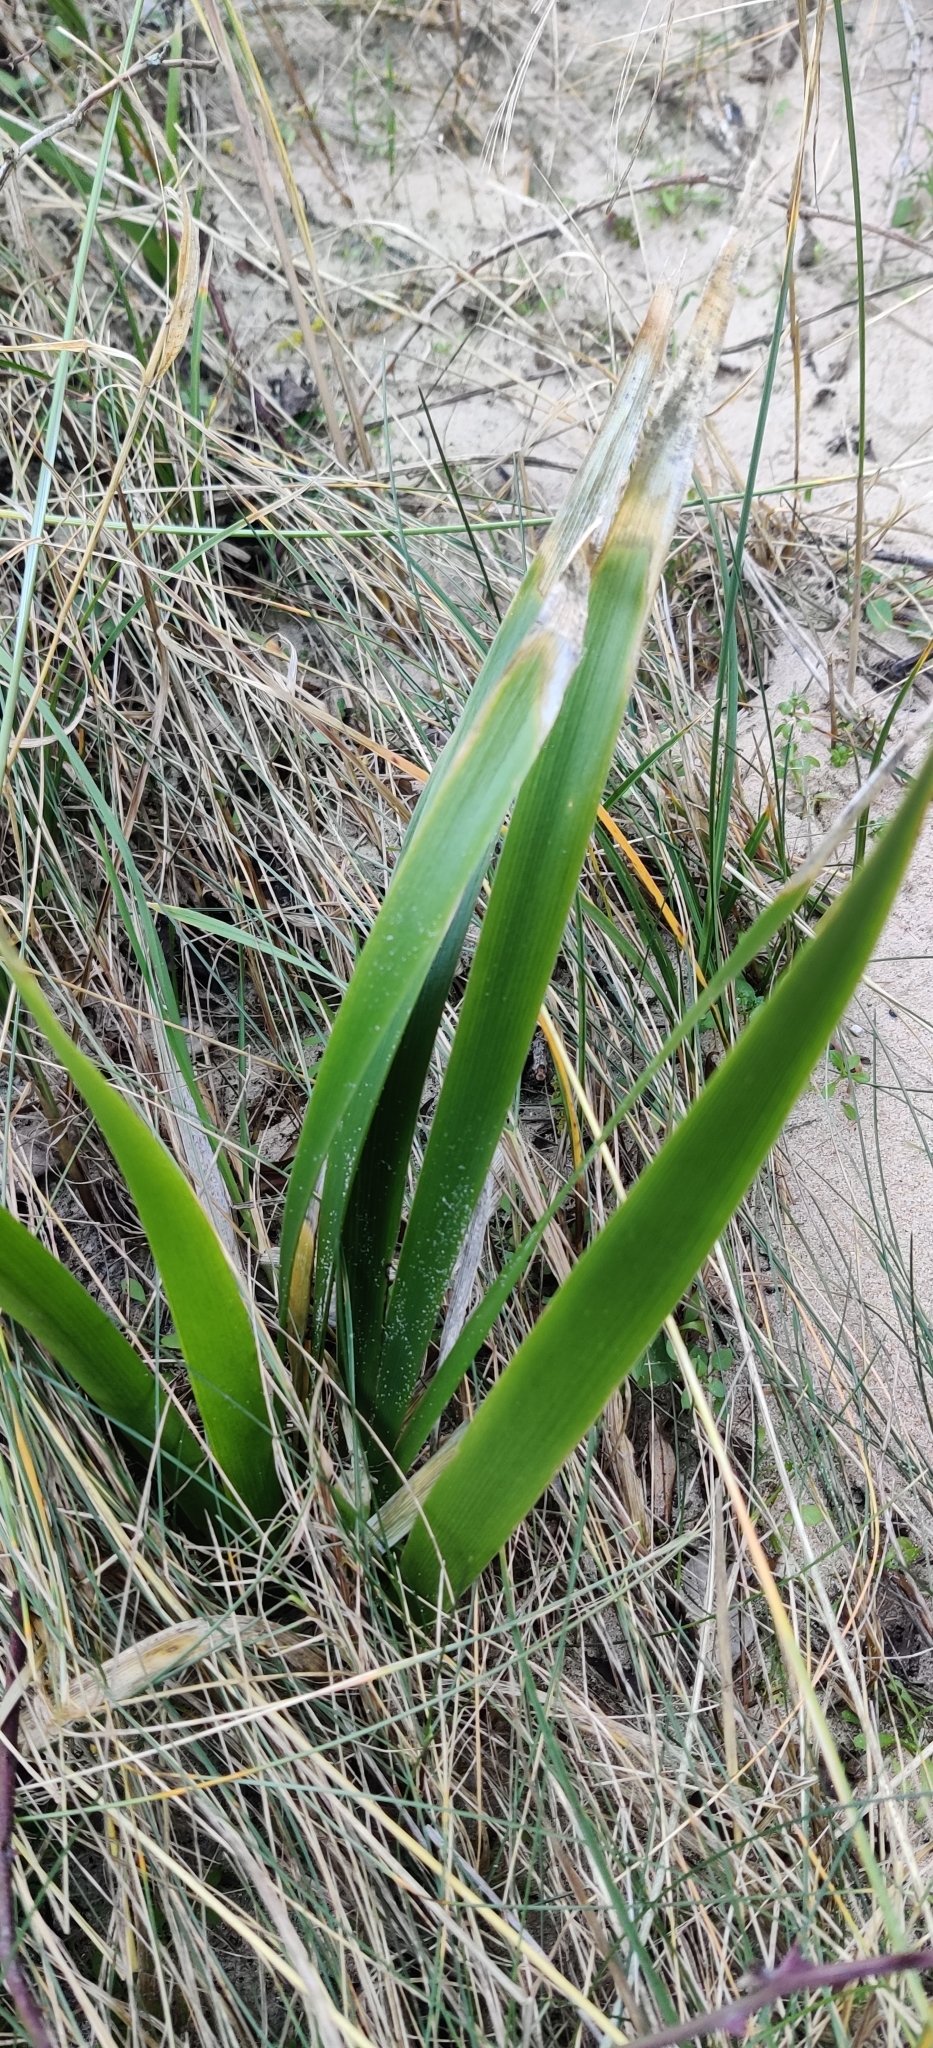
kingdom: Plantae
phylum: Tracheophyta
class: Liliopsida
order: Asparagales
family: Iridaceae
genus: Iris
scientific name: Iris foetidissima
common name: Stinking iris
